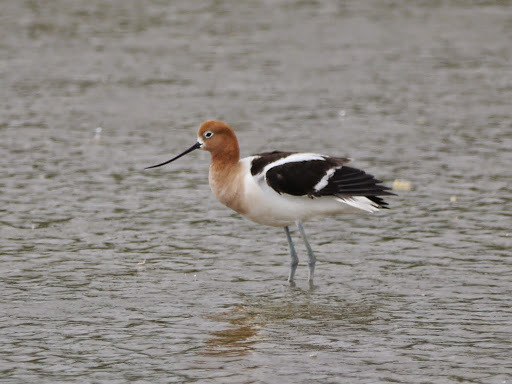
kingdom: Animalia
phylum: Chordata
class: Aves
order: Charadriiformes
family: Recurvirostridae
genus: Recurvirostra
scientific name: Recurvirostra americana
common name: American avocet
